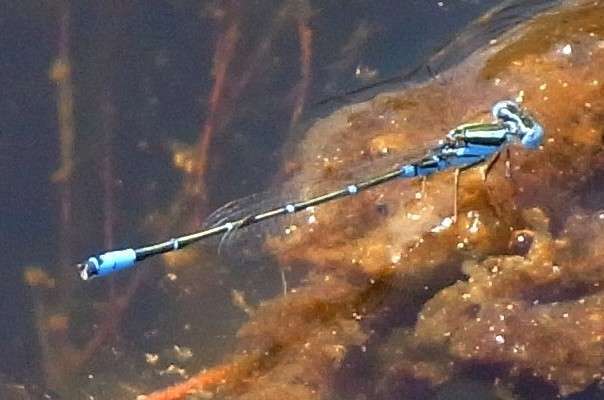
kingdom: Animalia
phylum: Arthropoda
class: Insecta
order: Odonata
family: Coenagrionidae
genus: Austroagrion
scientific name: Austroagrion watsoni
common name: Eastern billabongfly
